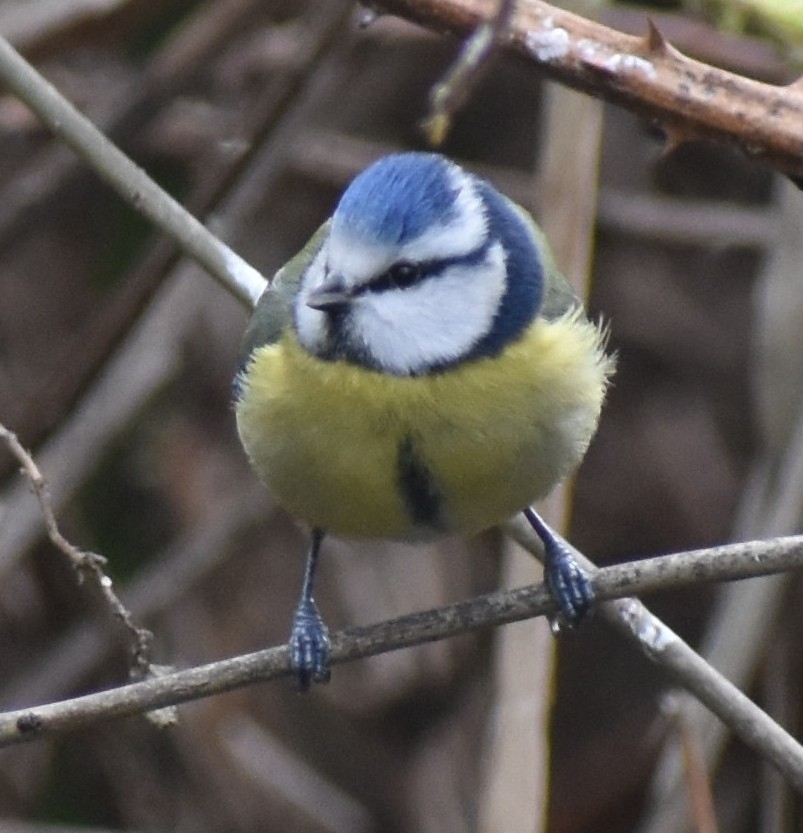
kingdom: Animalia
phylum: Chordata
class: Aves
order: Passeriformes
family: Paridae
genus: Cyanistes
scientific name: Cyanistes caeruleus
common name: Eurasian blue tit
